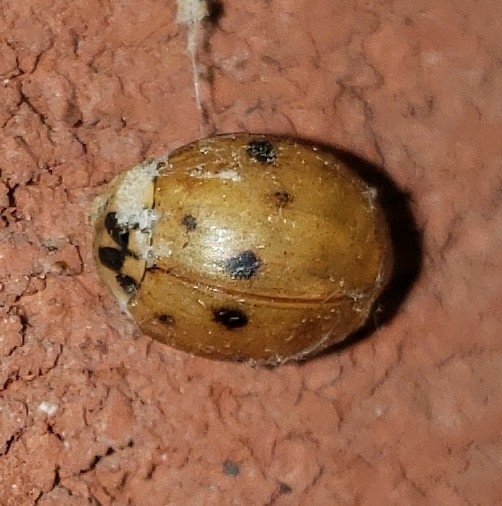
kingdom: Animalia
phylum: Arthropoda
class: Insecta
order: Coleoptera
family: Coccinellidae
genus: Harmonia
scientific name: Harmonia axyridis
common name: Harlequin ladybird
